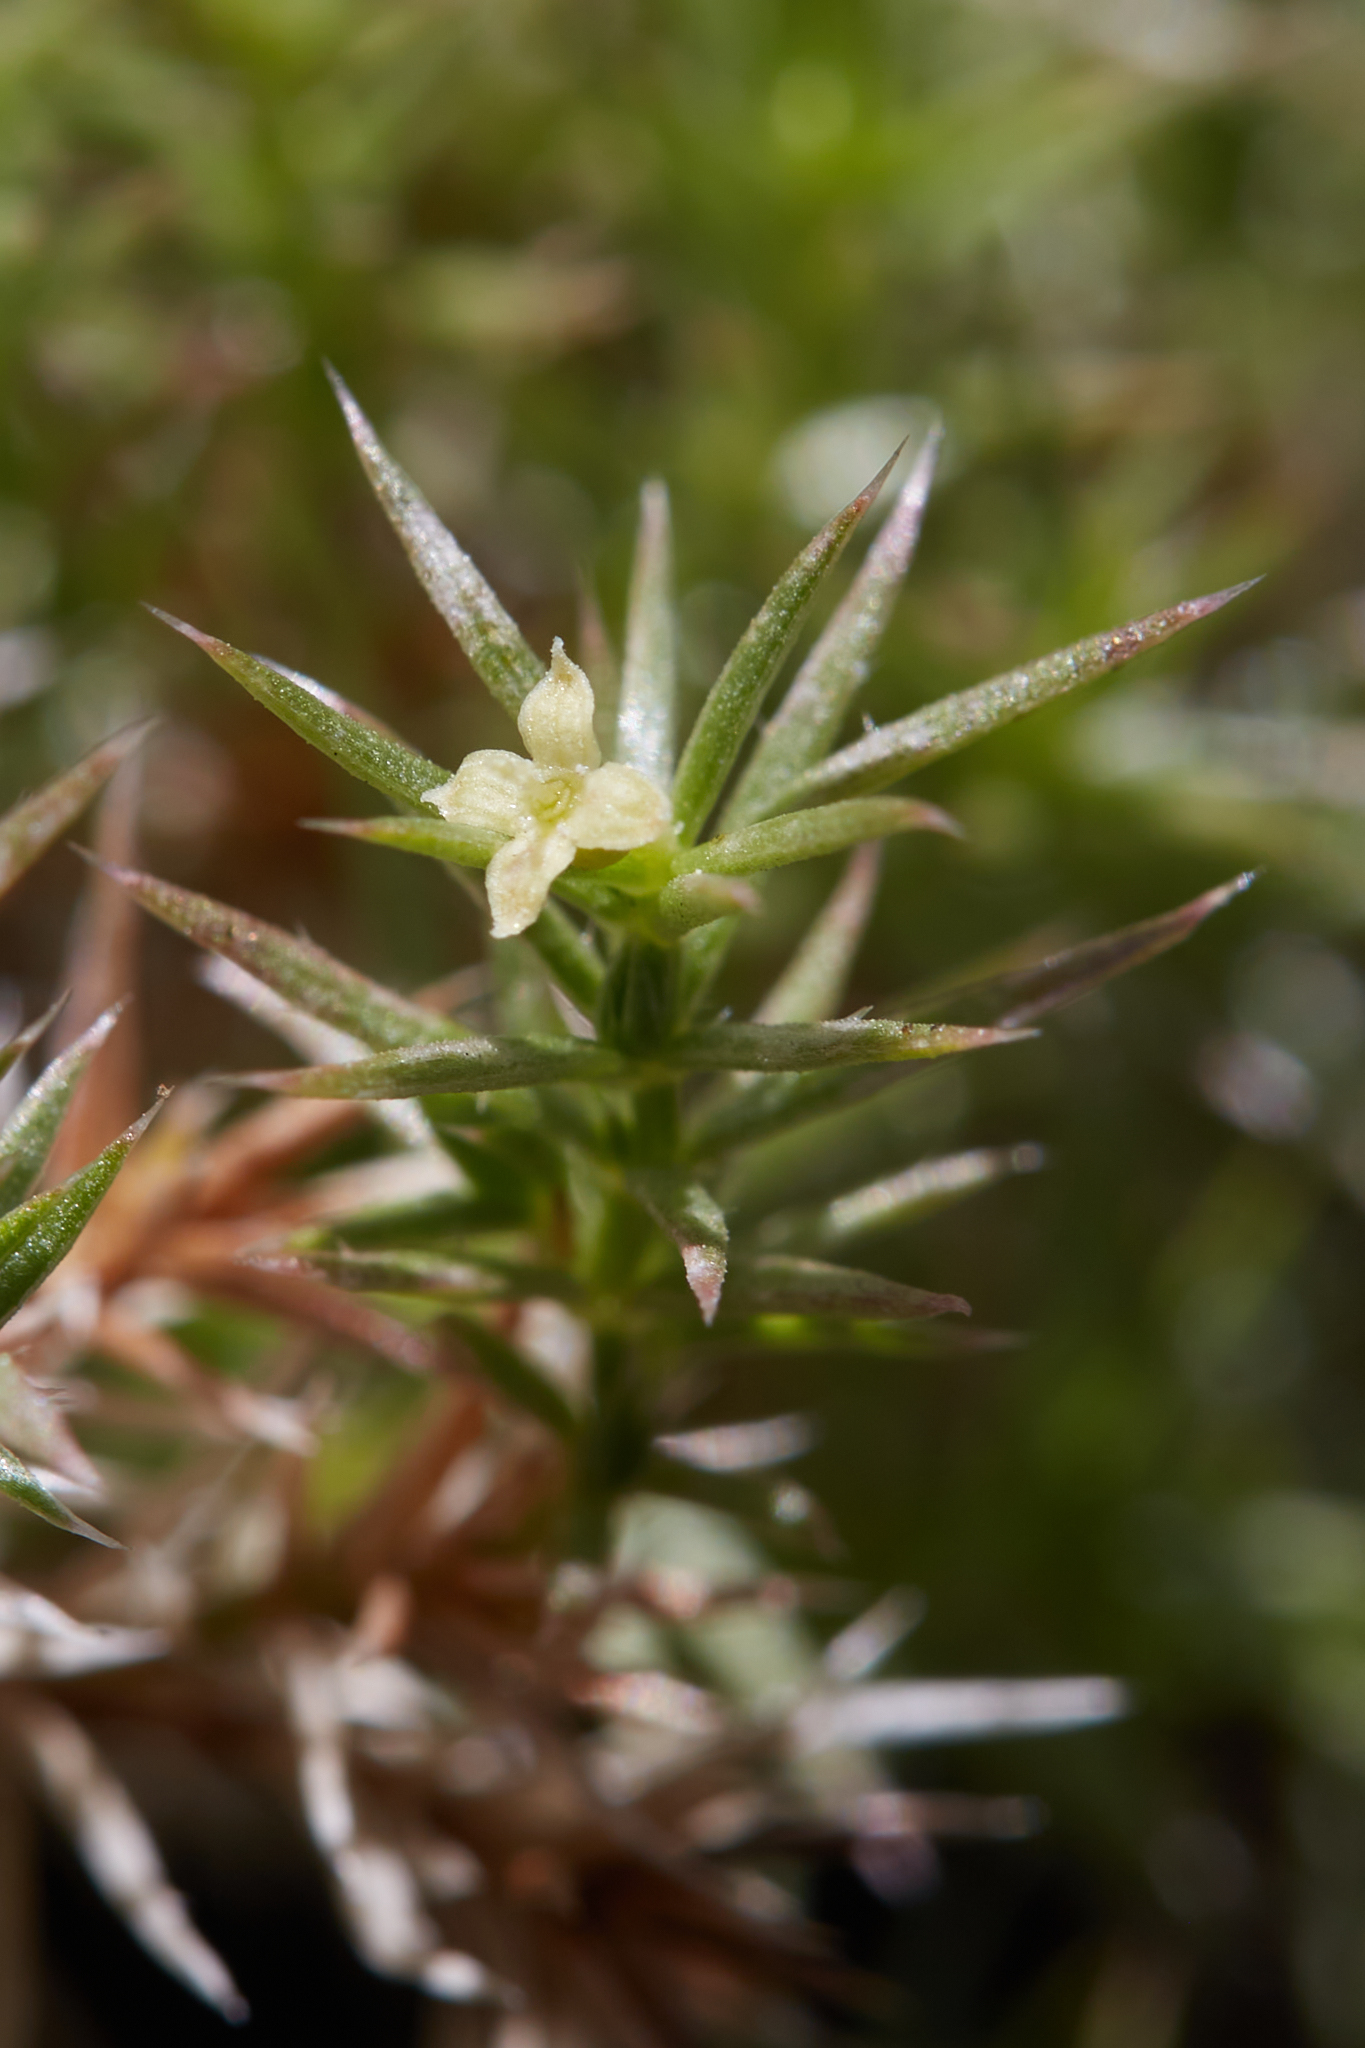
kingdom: Plantae
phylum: Tracheophyta
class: Magnoliopsida
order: Gentianales
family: Rubiaceae
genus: Galium
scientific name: Galium andrewsii
